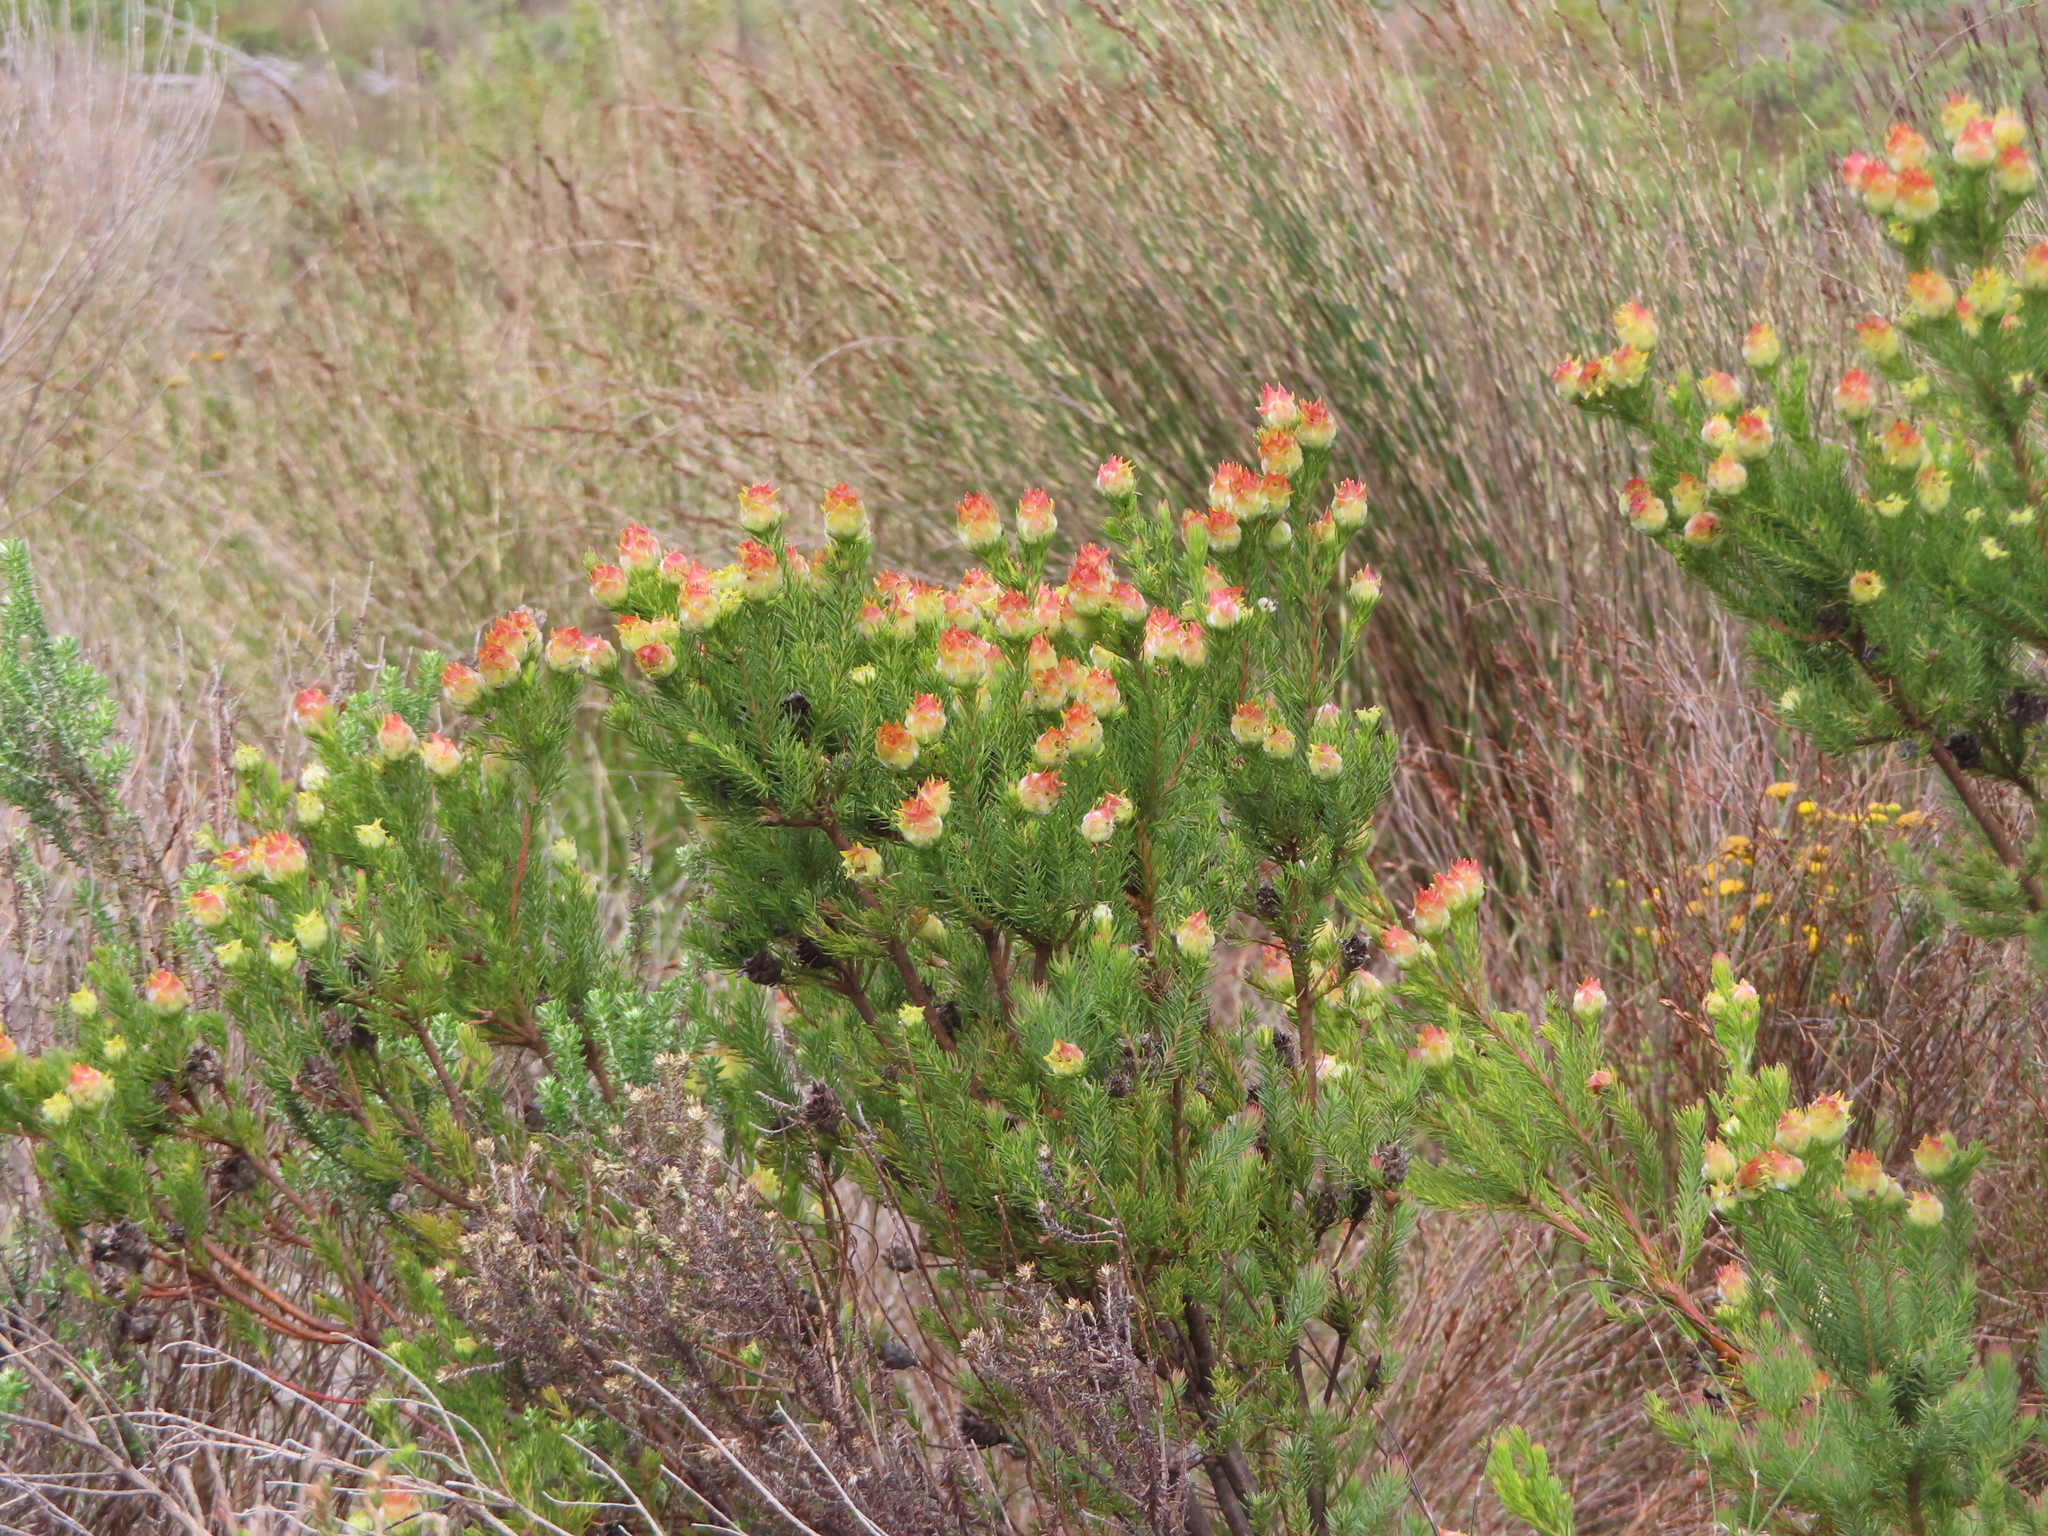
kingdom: Plantae
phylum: Tracheophyta
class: Magnoliopsida
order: Proteales
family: Proteaceae
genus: Leucadendron
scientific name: Leucadendron laxum
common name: Bredasdorp conebush
